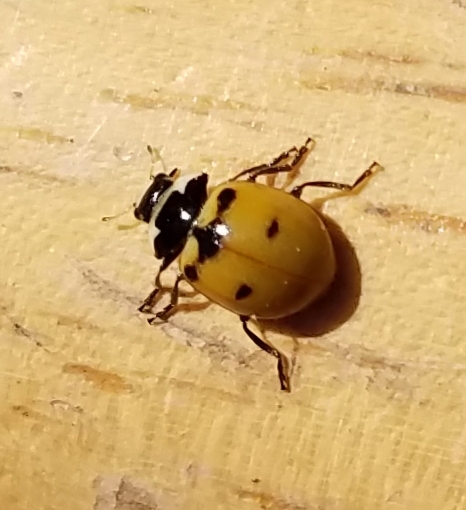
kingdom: Animalia
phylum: Arthropoda
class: Insecta
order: Coleoptera
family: Coccinellidae
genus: Coccinella
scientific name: Coccinella trifasciata
